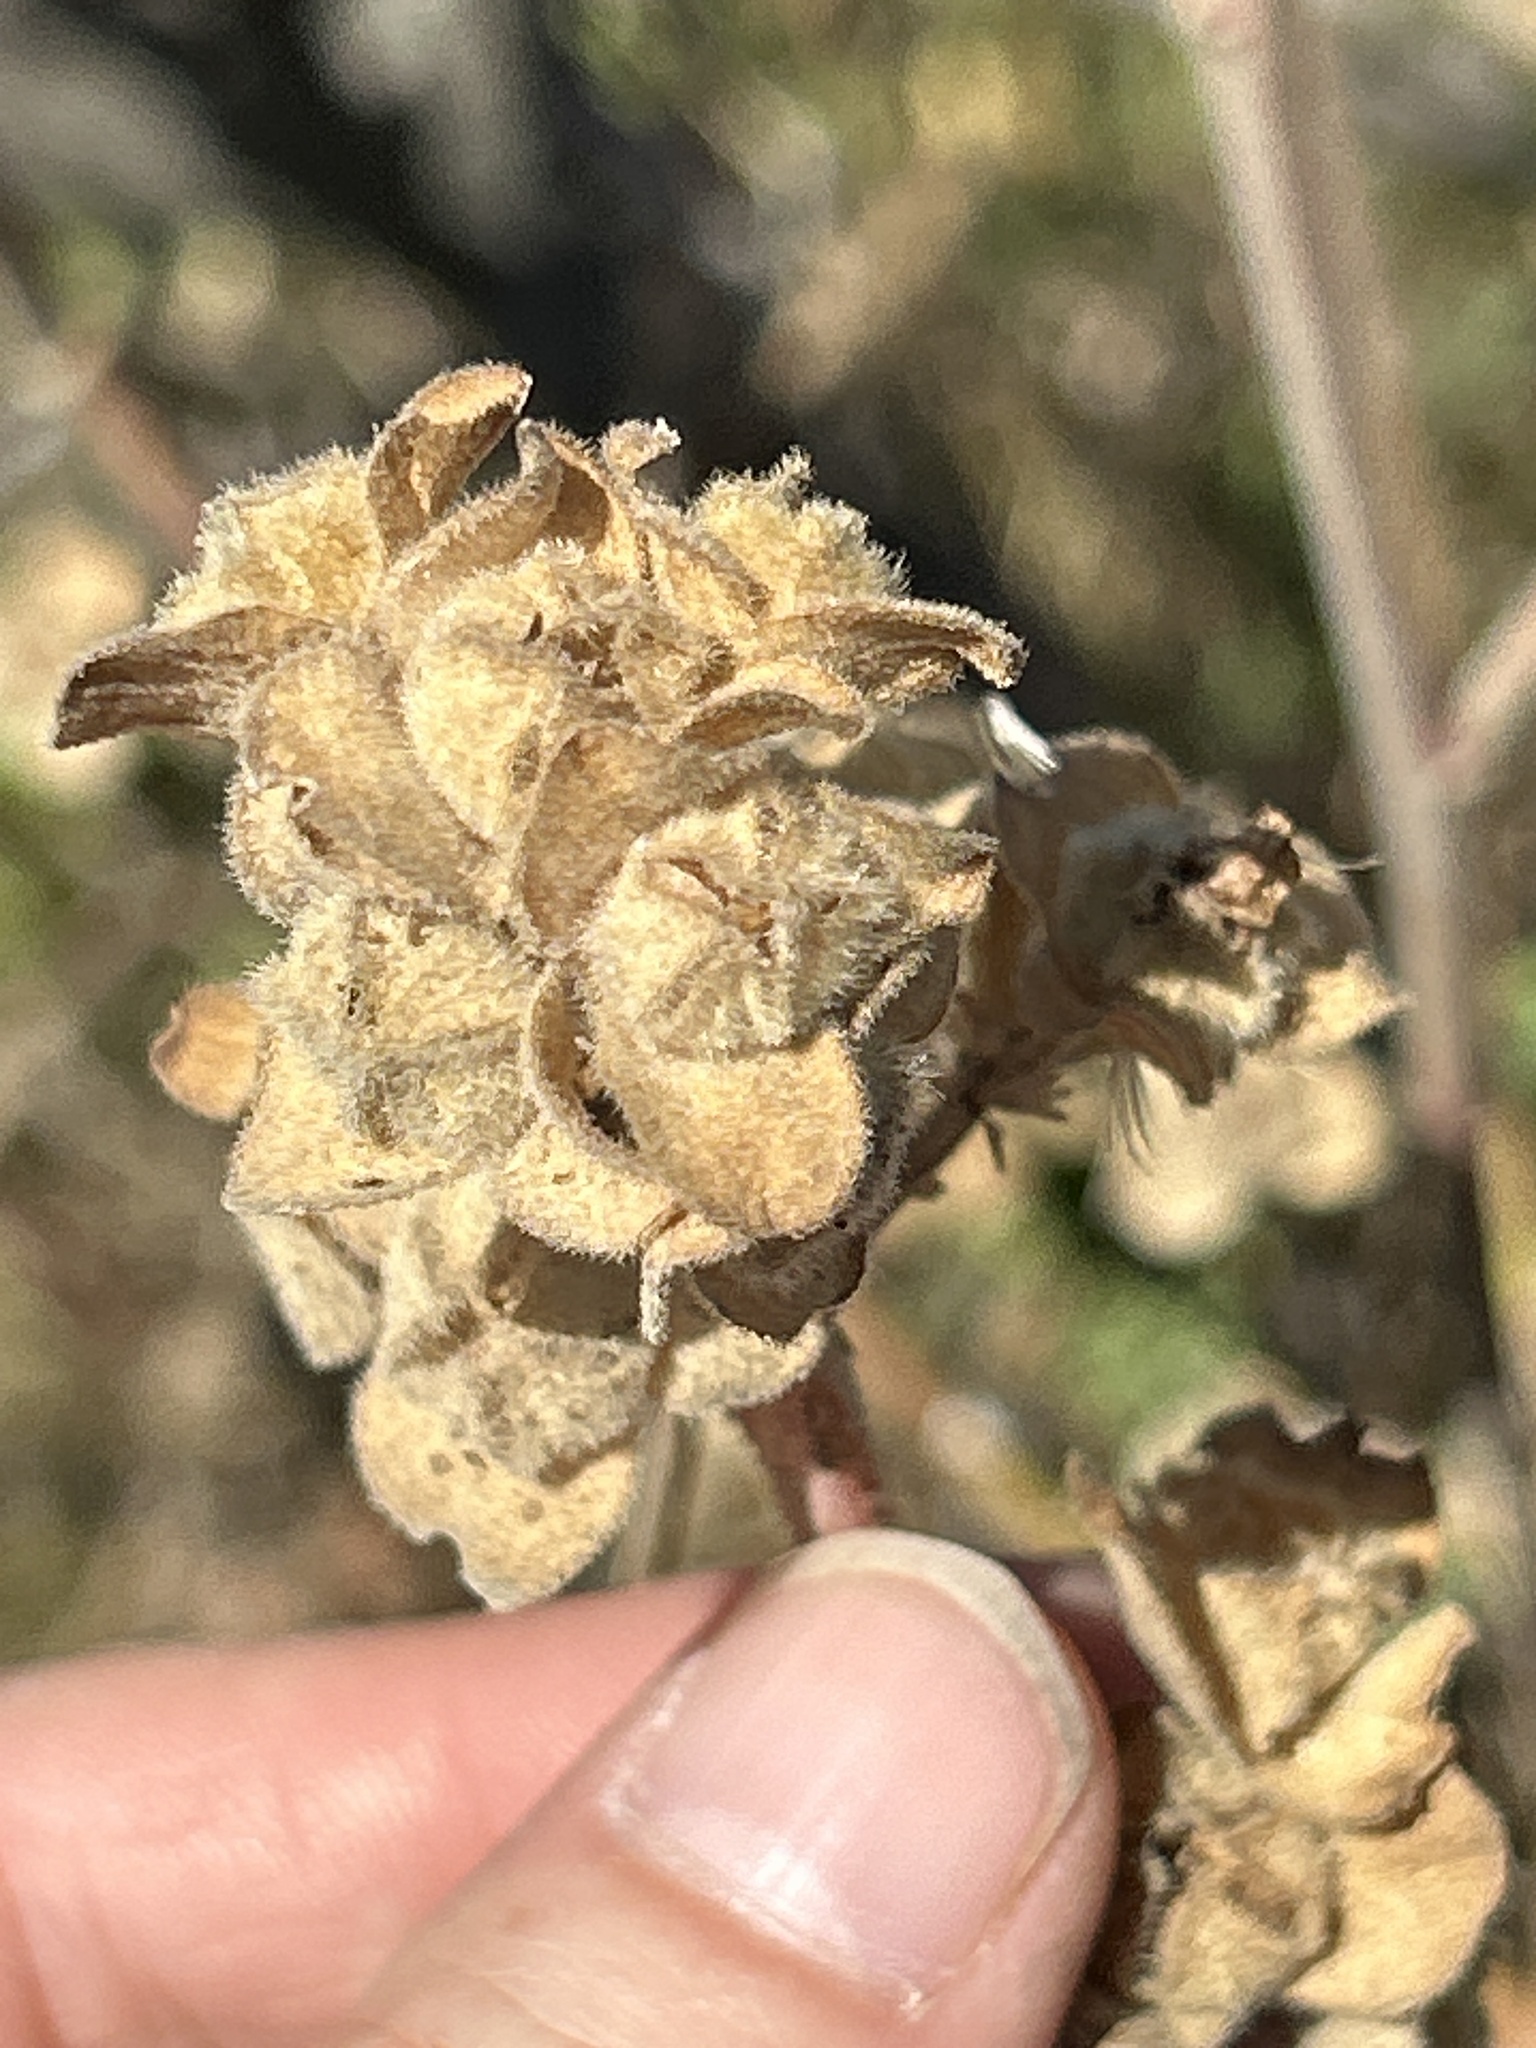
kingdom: Plantae
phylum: Tracheophyta
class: Magnoliopsida
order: Malvales
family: Malvaceae
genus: Malva
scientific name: Malva arborea
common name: Tree mallow
